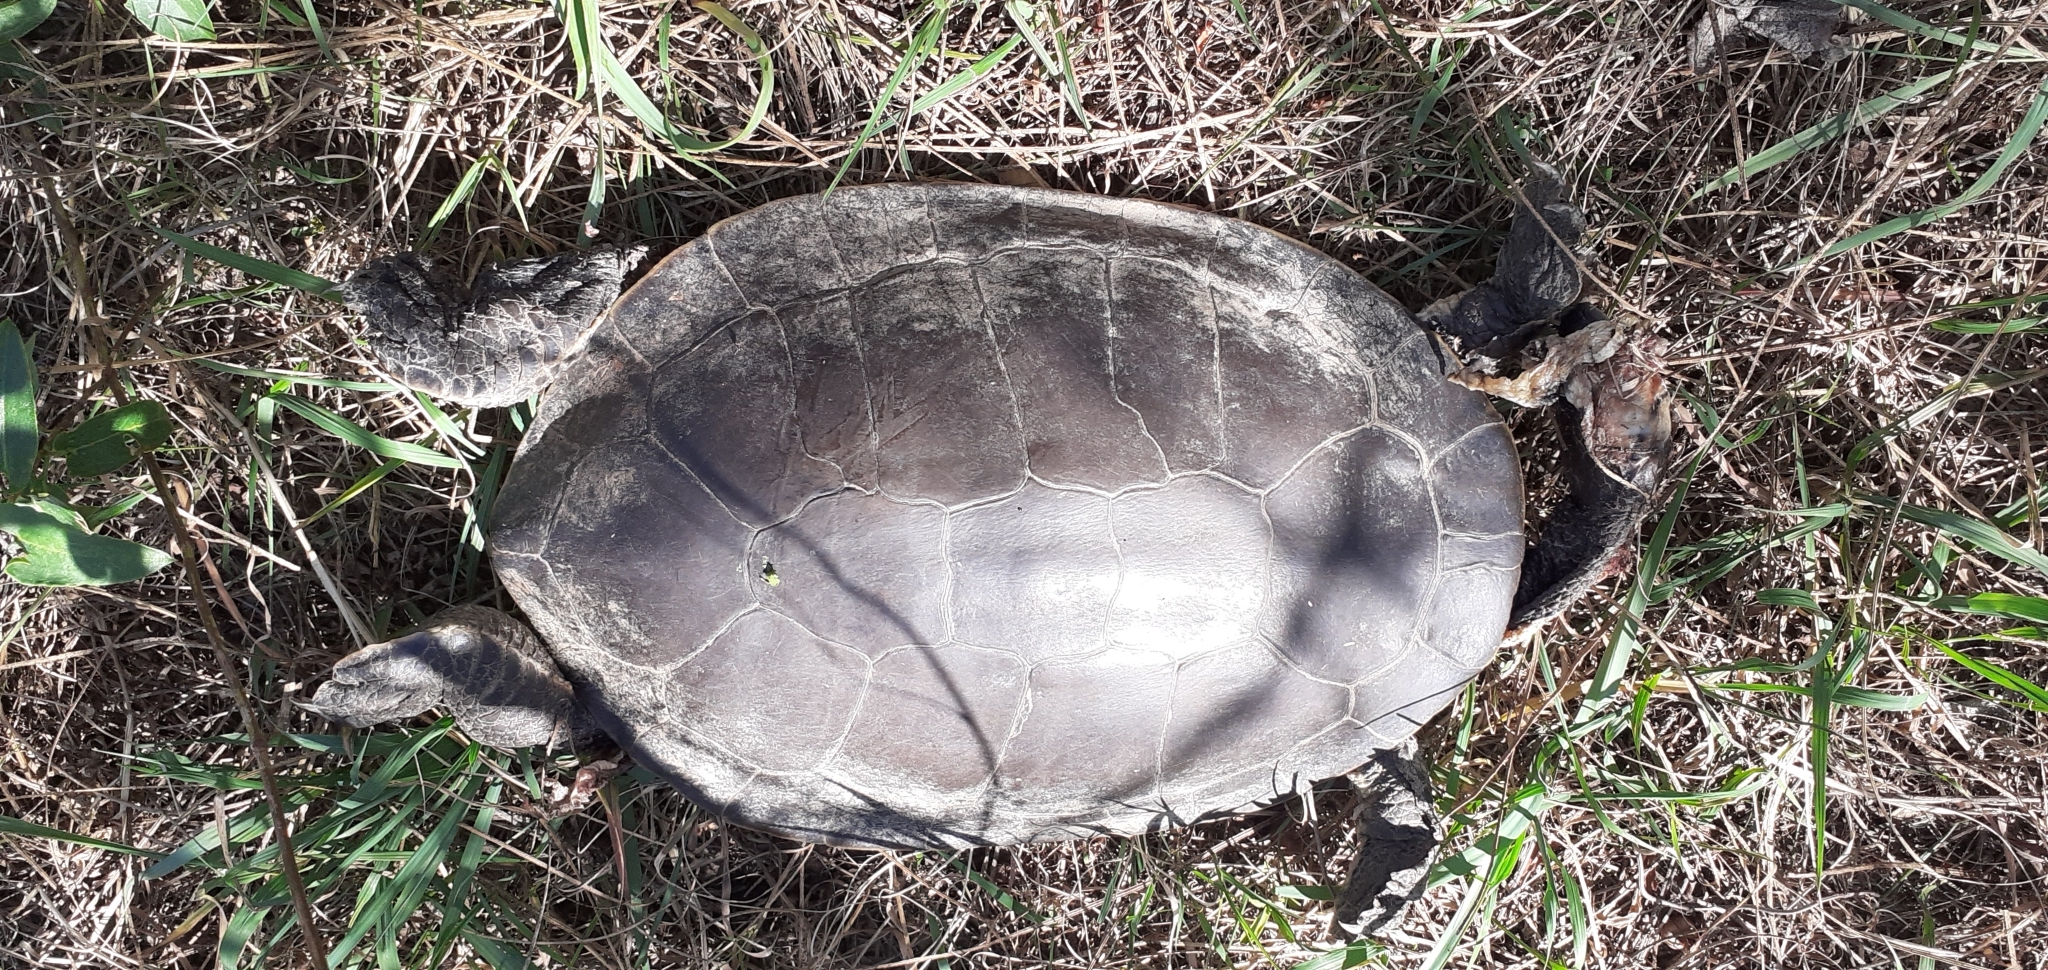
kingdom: Animalia
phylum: Chordata
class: Testudines
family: Chelidae
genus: Phrynops
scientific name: Phrynops hilarii
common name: Side-necked turtle of saint hillaire
